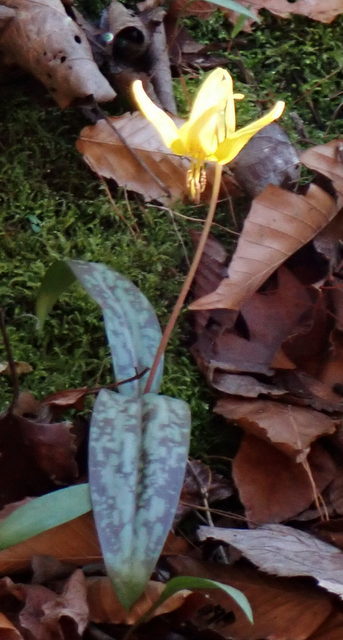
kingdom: Plantae
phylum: Tracheophyta
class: Liliopsida
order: Liliales
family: Liliaceae
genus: Erythronium
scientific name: Erythronium umbilicatum
